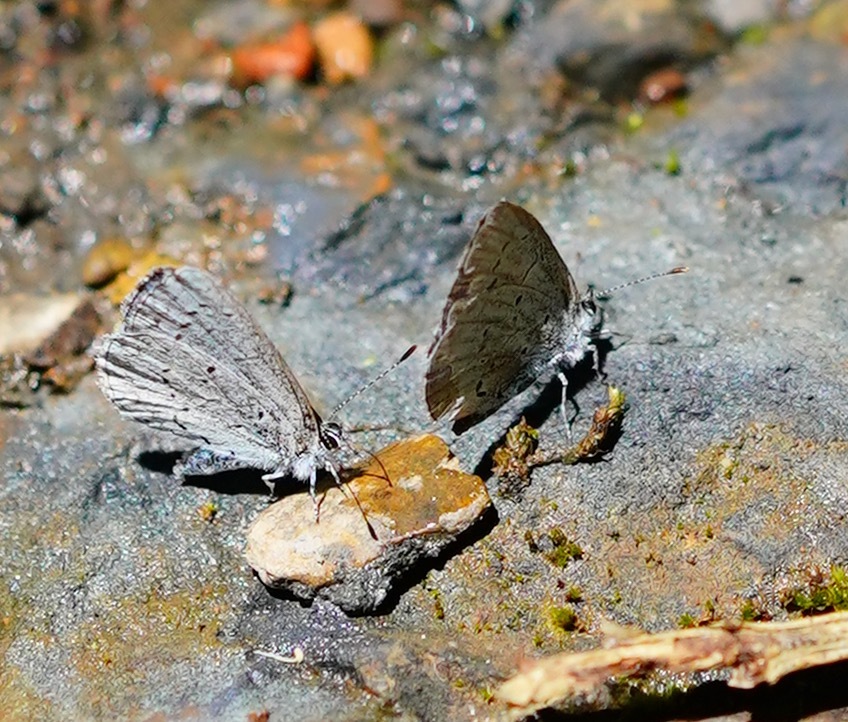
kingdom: Animalia
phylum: Arthropoda
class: Insecta
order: Lepidoptera
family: Lycaenidae
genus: Celastrina
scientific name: Celastrina ladon
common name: Spring azure
